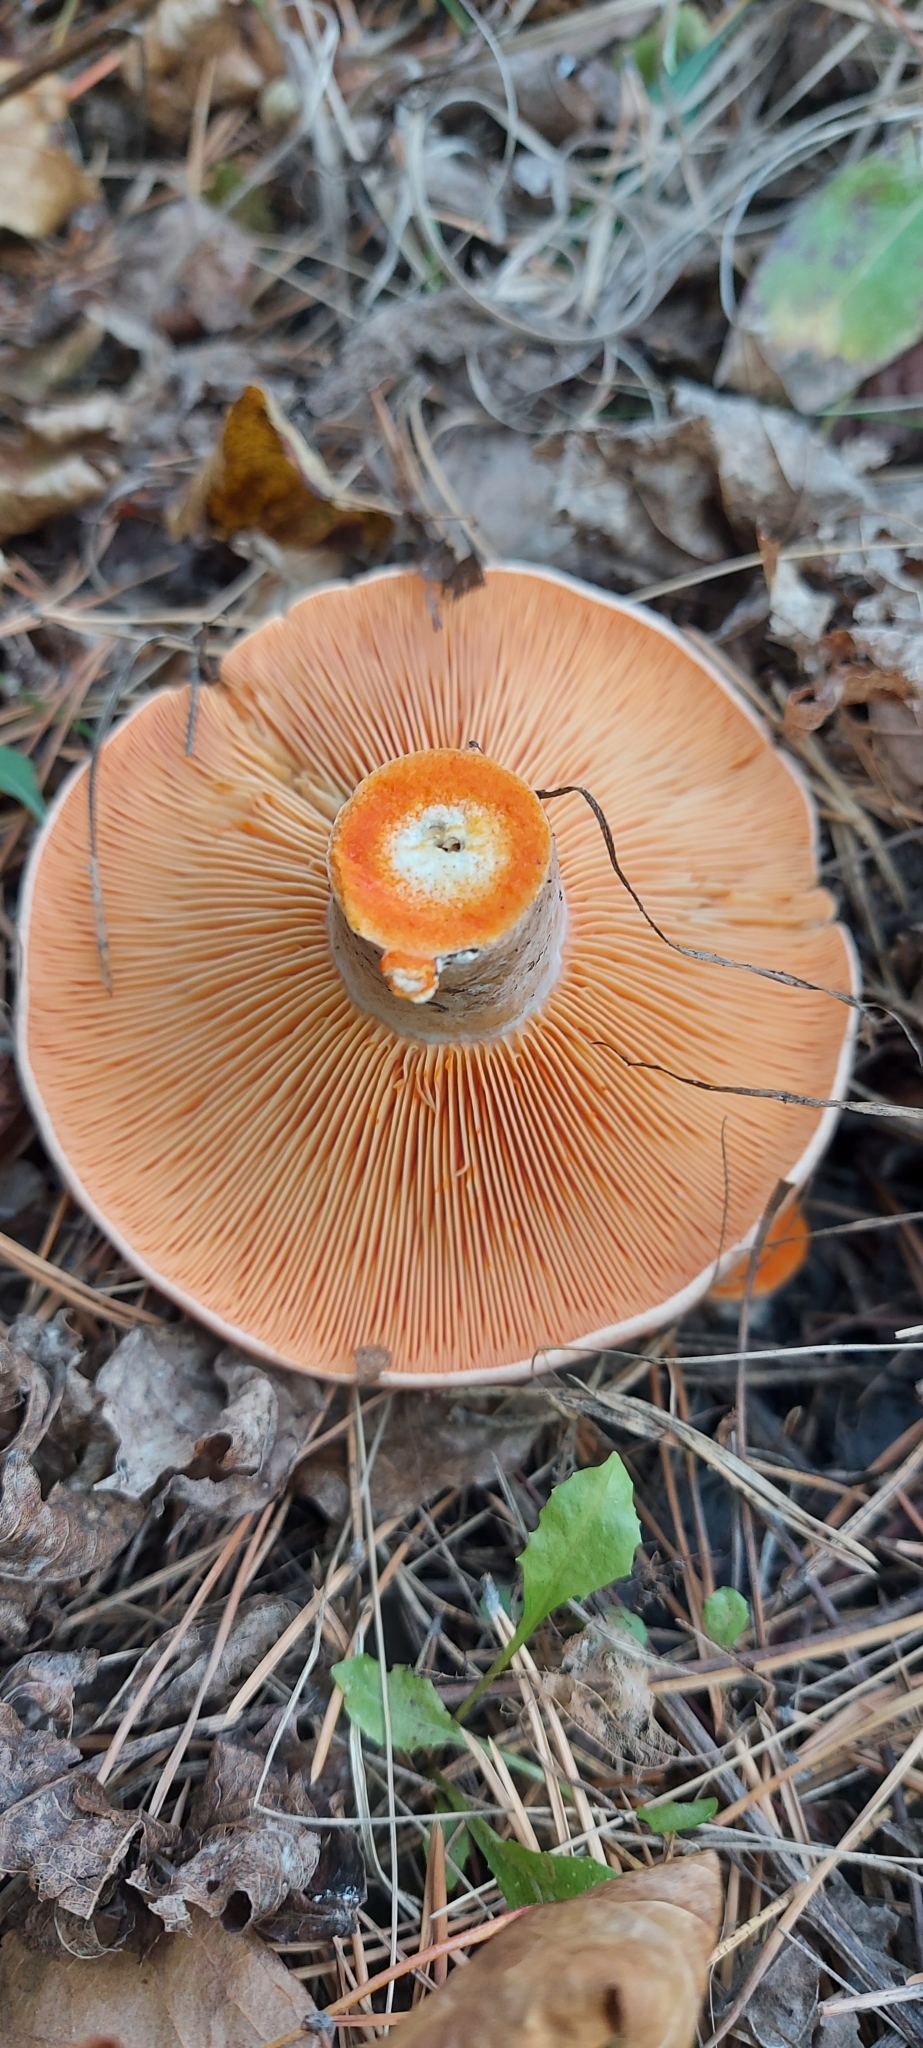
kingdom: Fungi
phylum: Basidiomycota
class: Agaricomycetes
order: Russulales
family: Russulaceae
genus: Lactarius
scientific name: Lactarius deliciosus
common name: Saffron milk-cap
